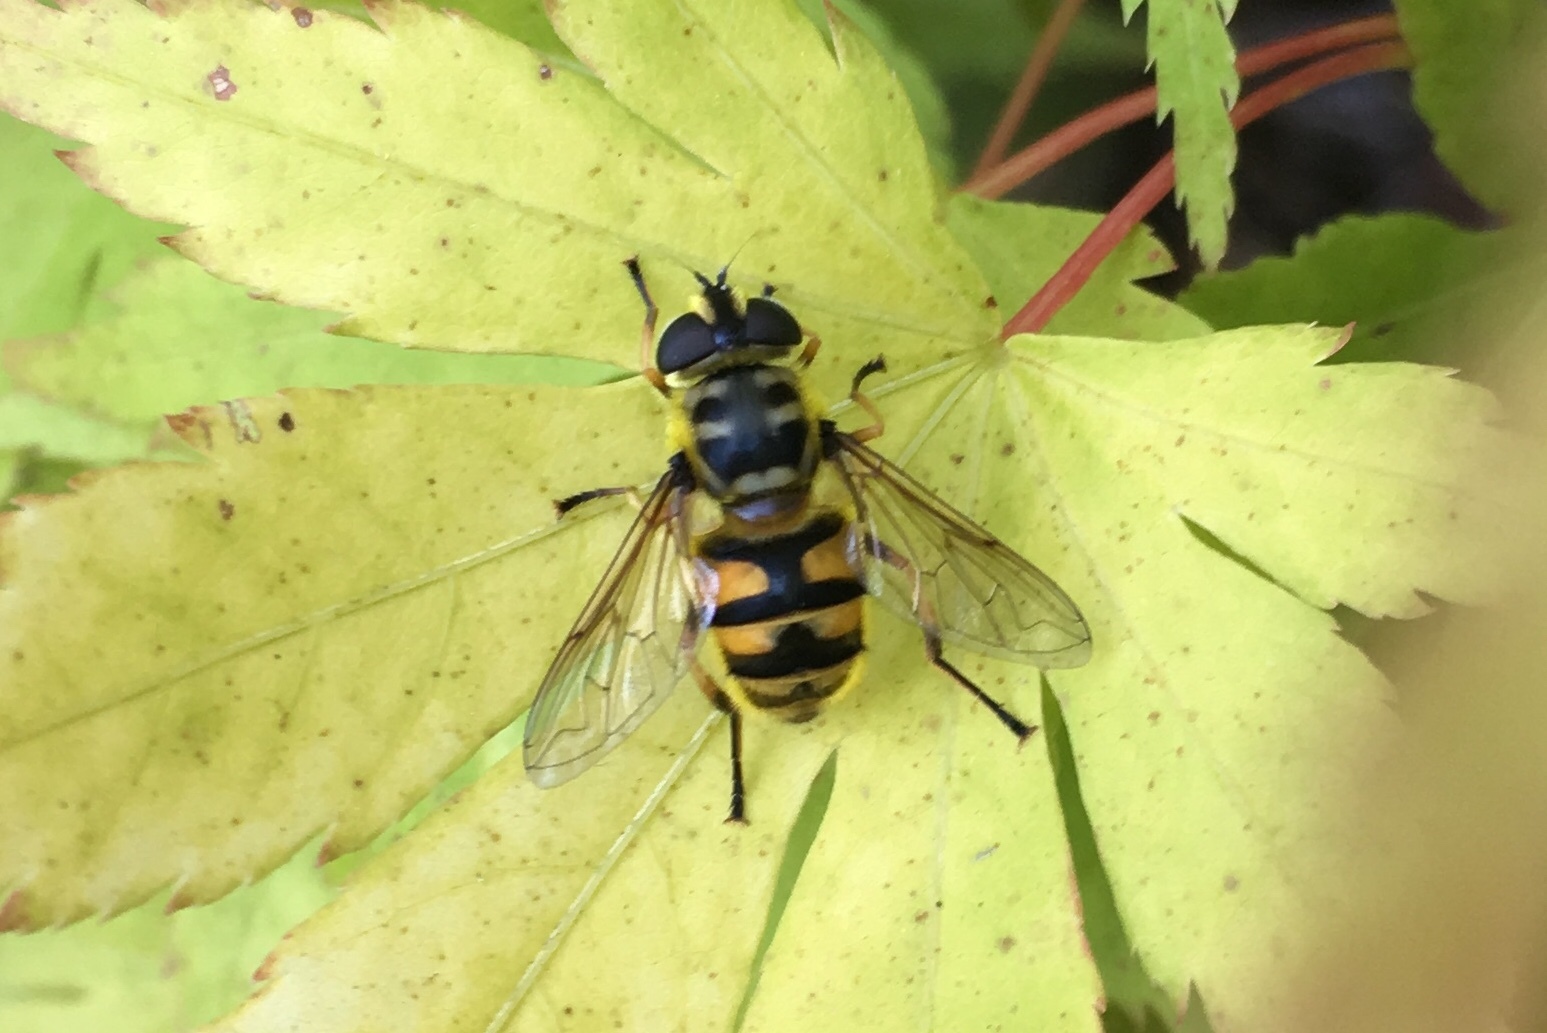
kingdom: Animalia
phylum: Arthropoda
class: Insecta
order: Diptera
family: Syrphidae
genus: Myathropa
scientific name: Myathropa florea
